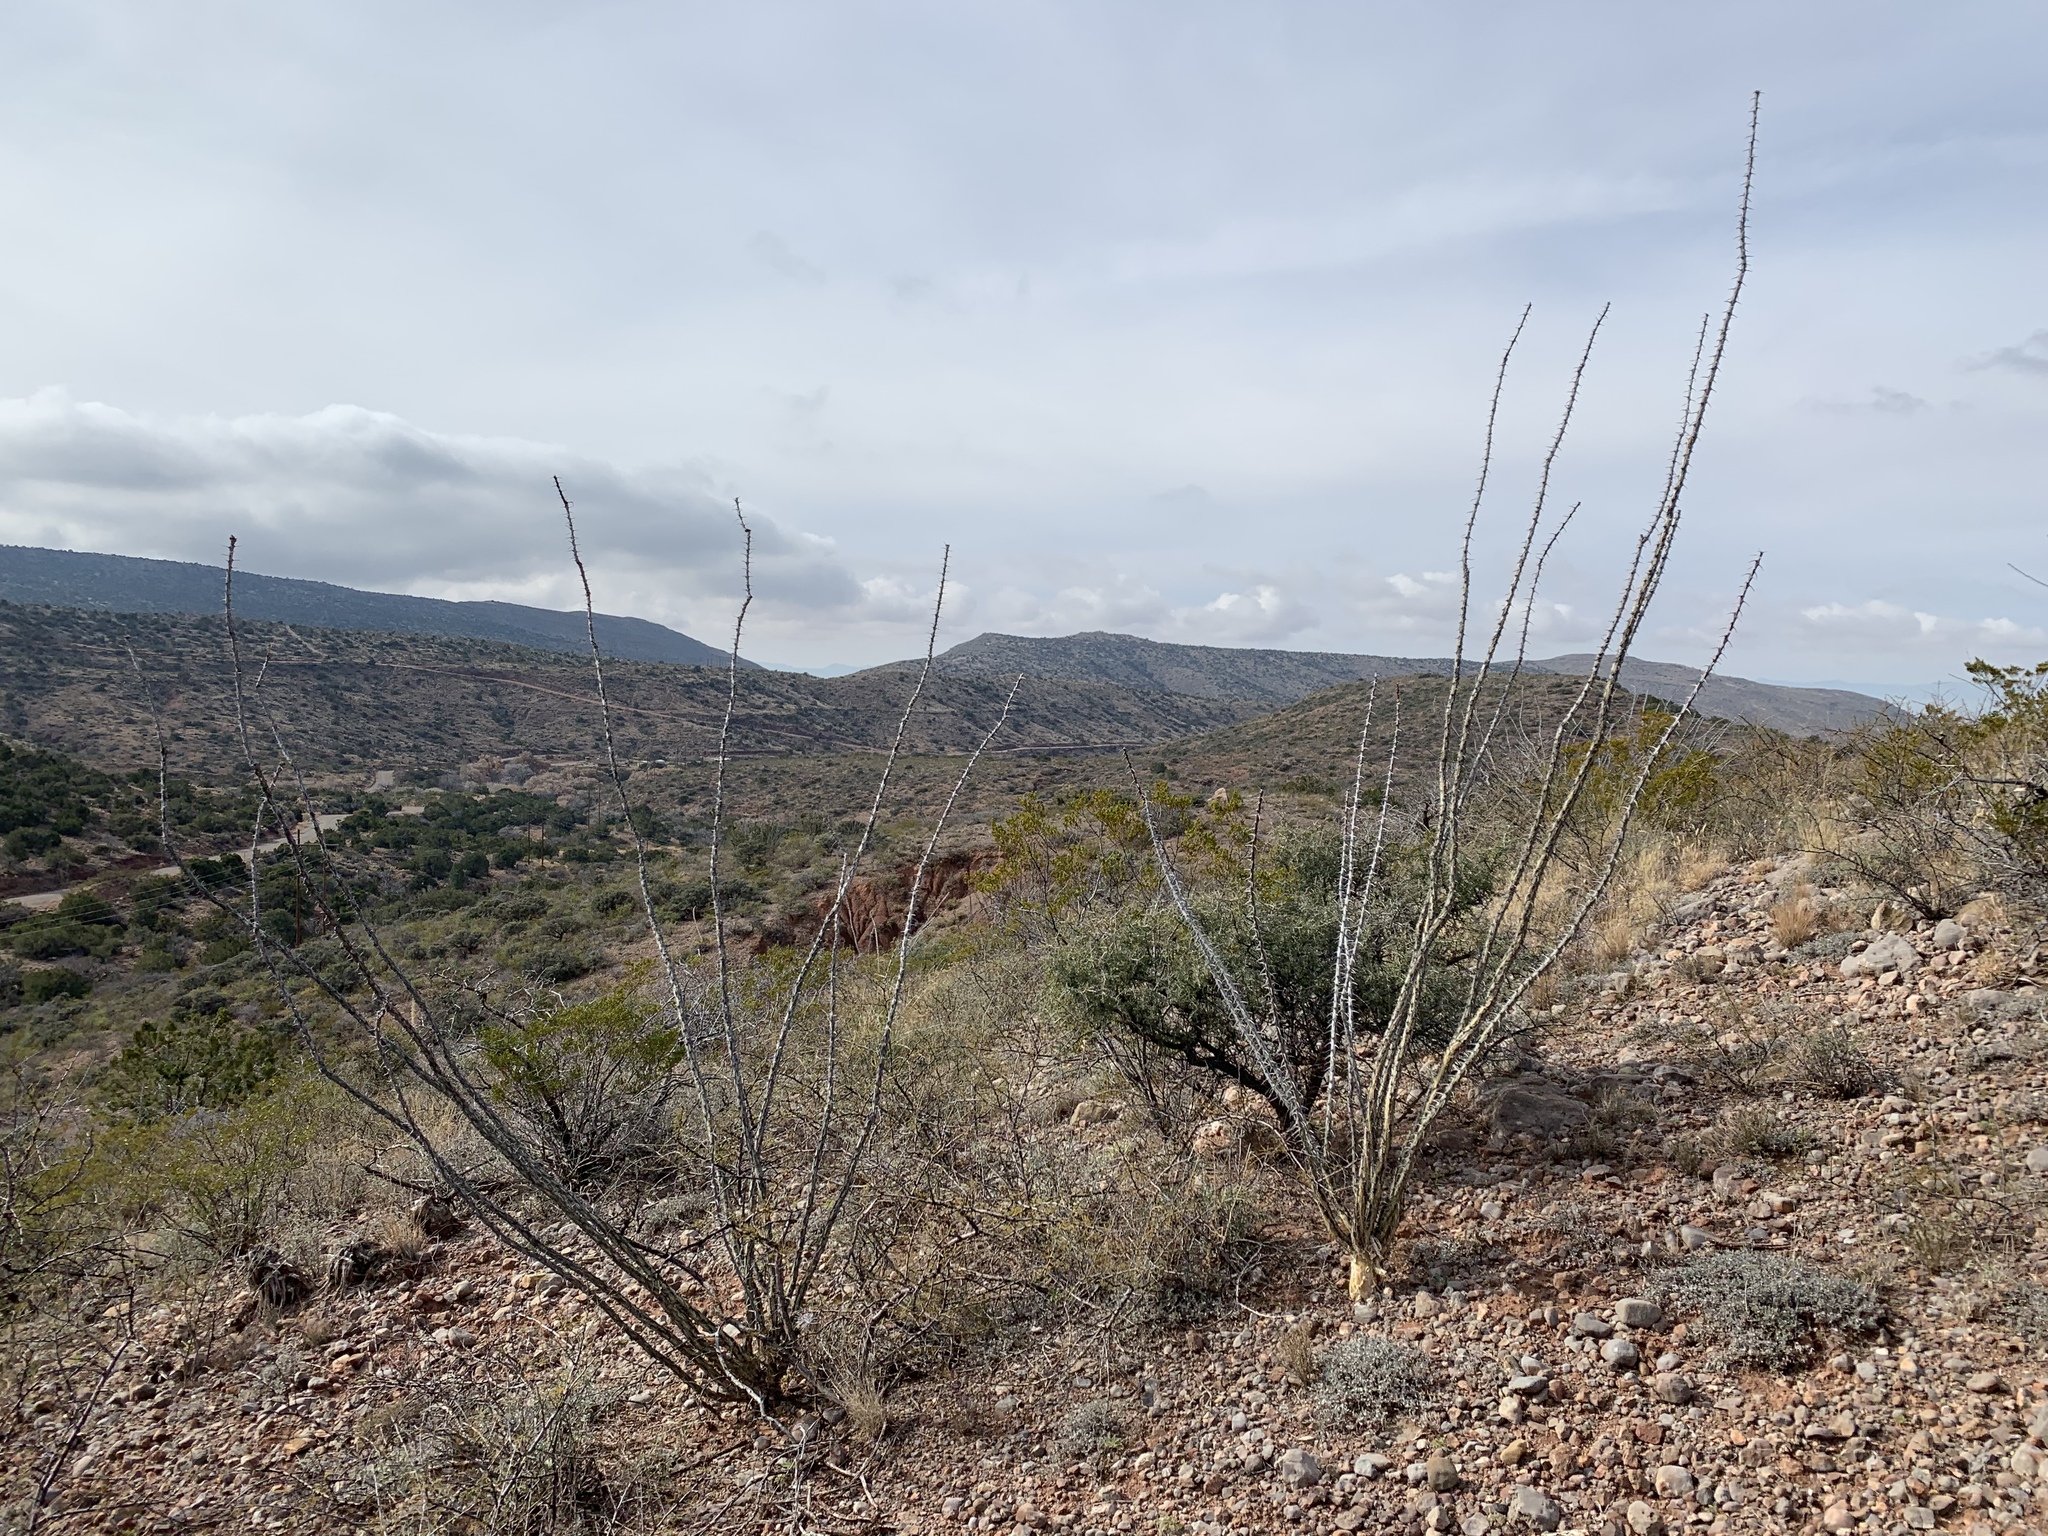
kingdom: Plantae
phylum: Tracheophyta
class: Magnoliopsida
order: Ericales
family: Fouquieriaceae
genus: Fouquieria
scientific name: Fouquieria splendens
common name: Vine-cactus
